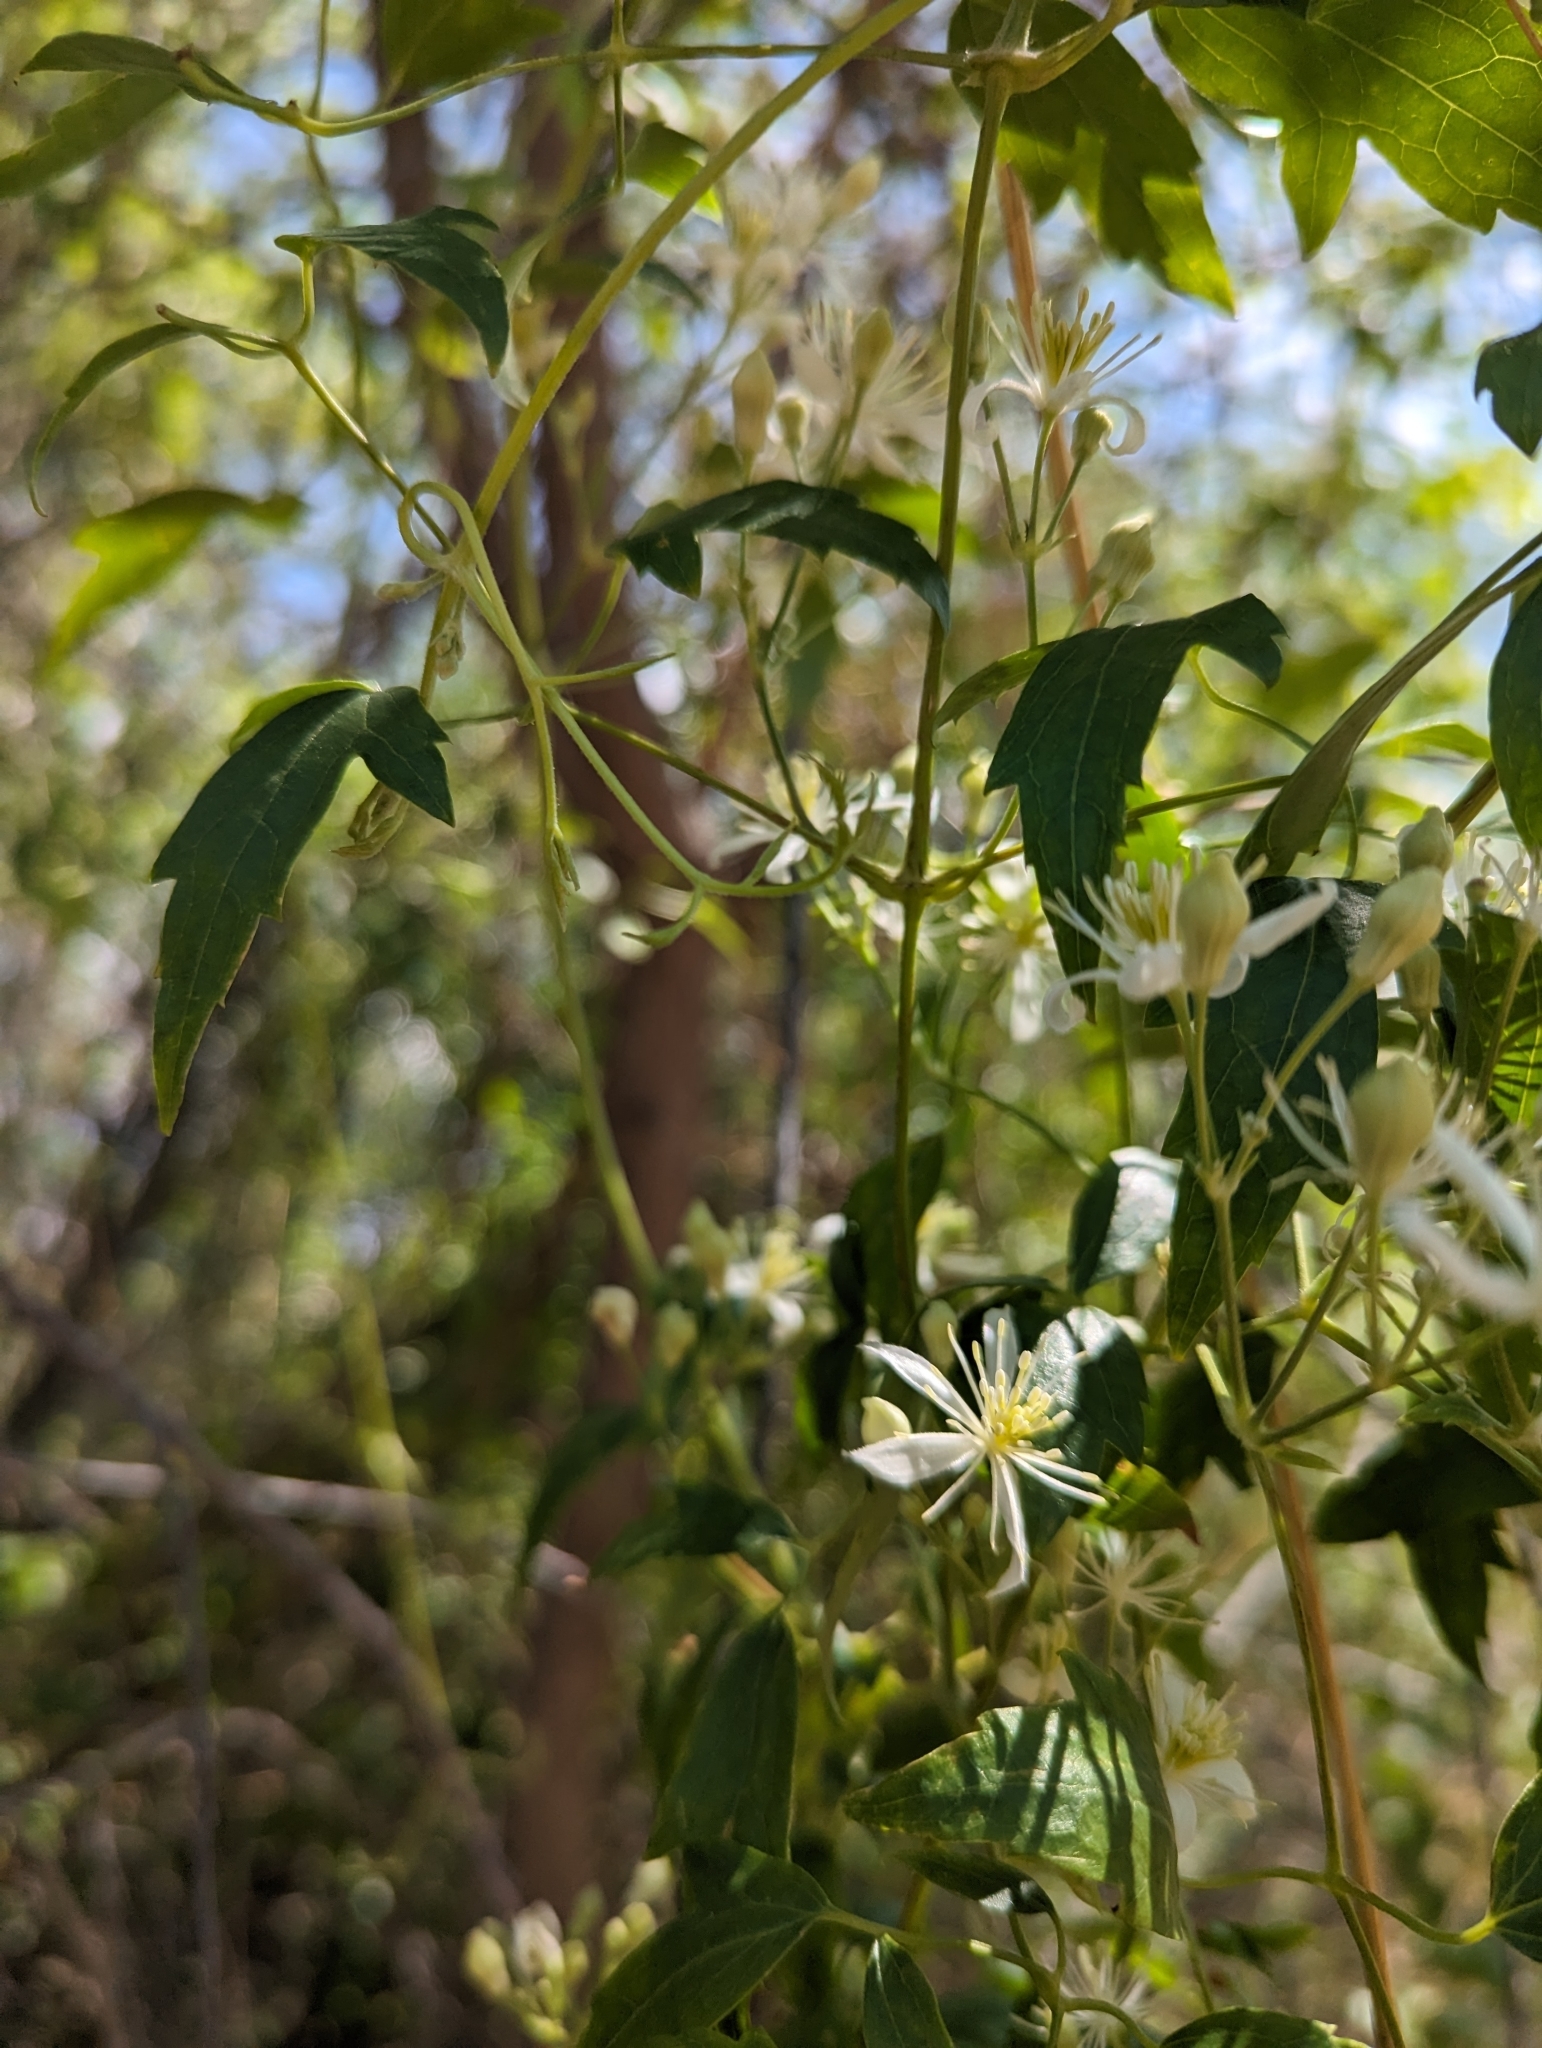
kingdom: Plantae
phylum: Tracheophyta
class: Magnoliopsida
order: Ranunculales
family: Ranunculaceae
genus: Clematis
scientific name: Clematis ligusticifolia
